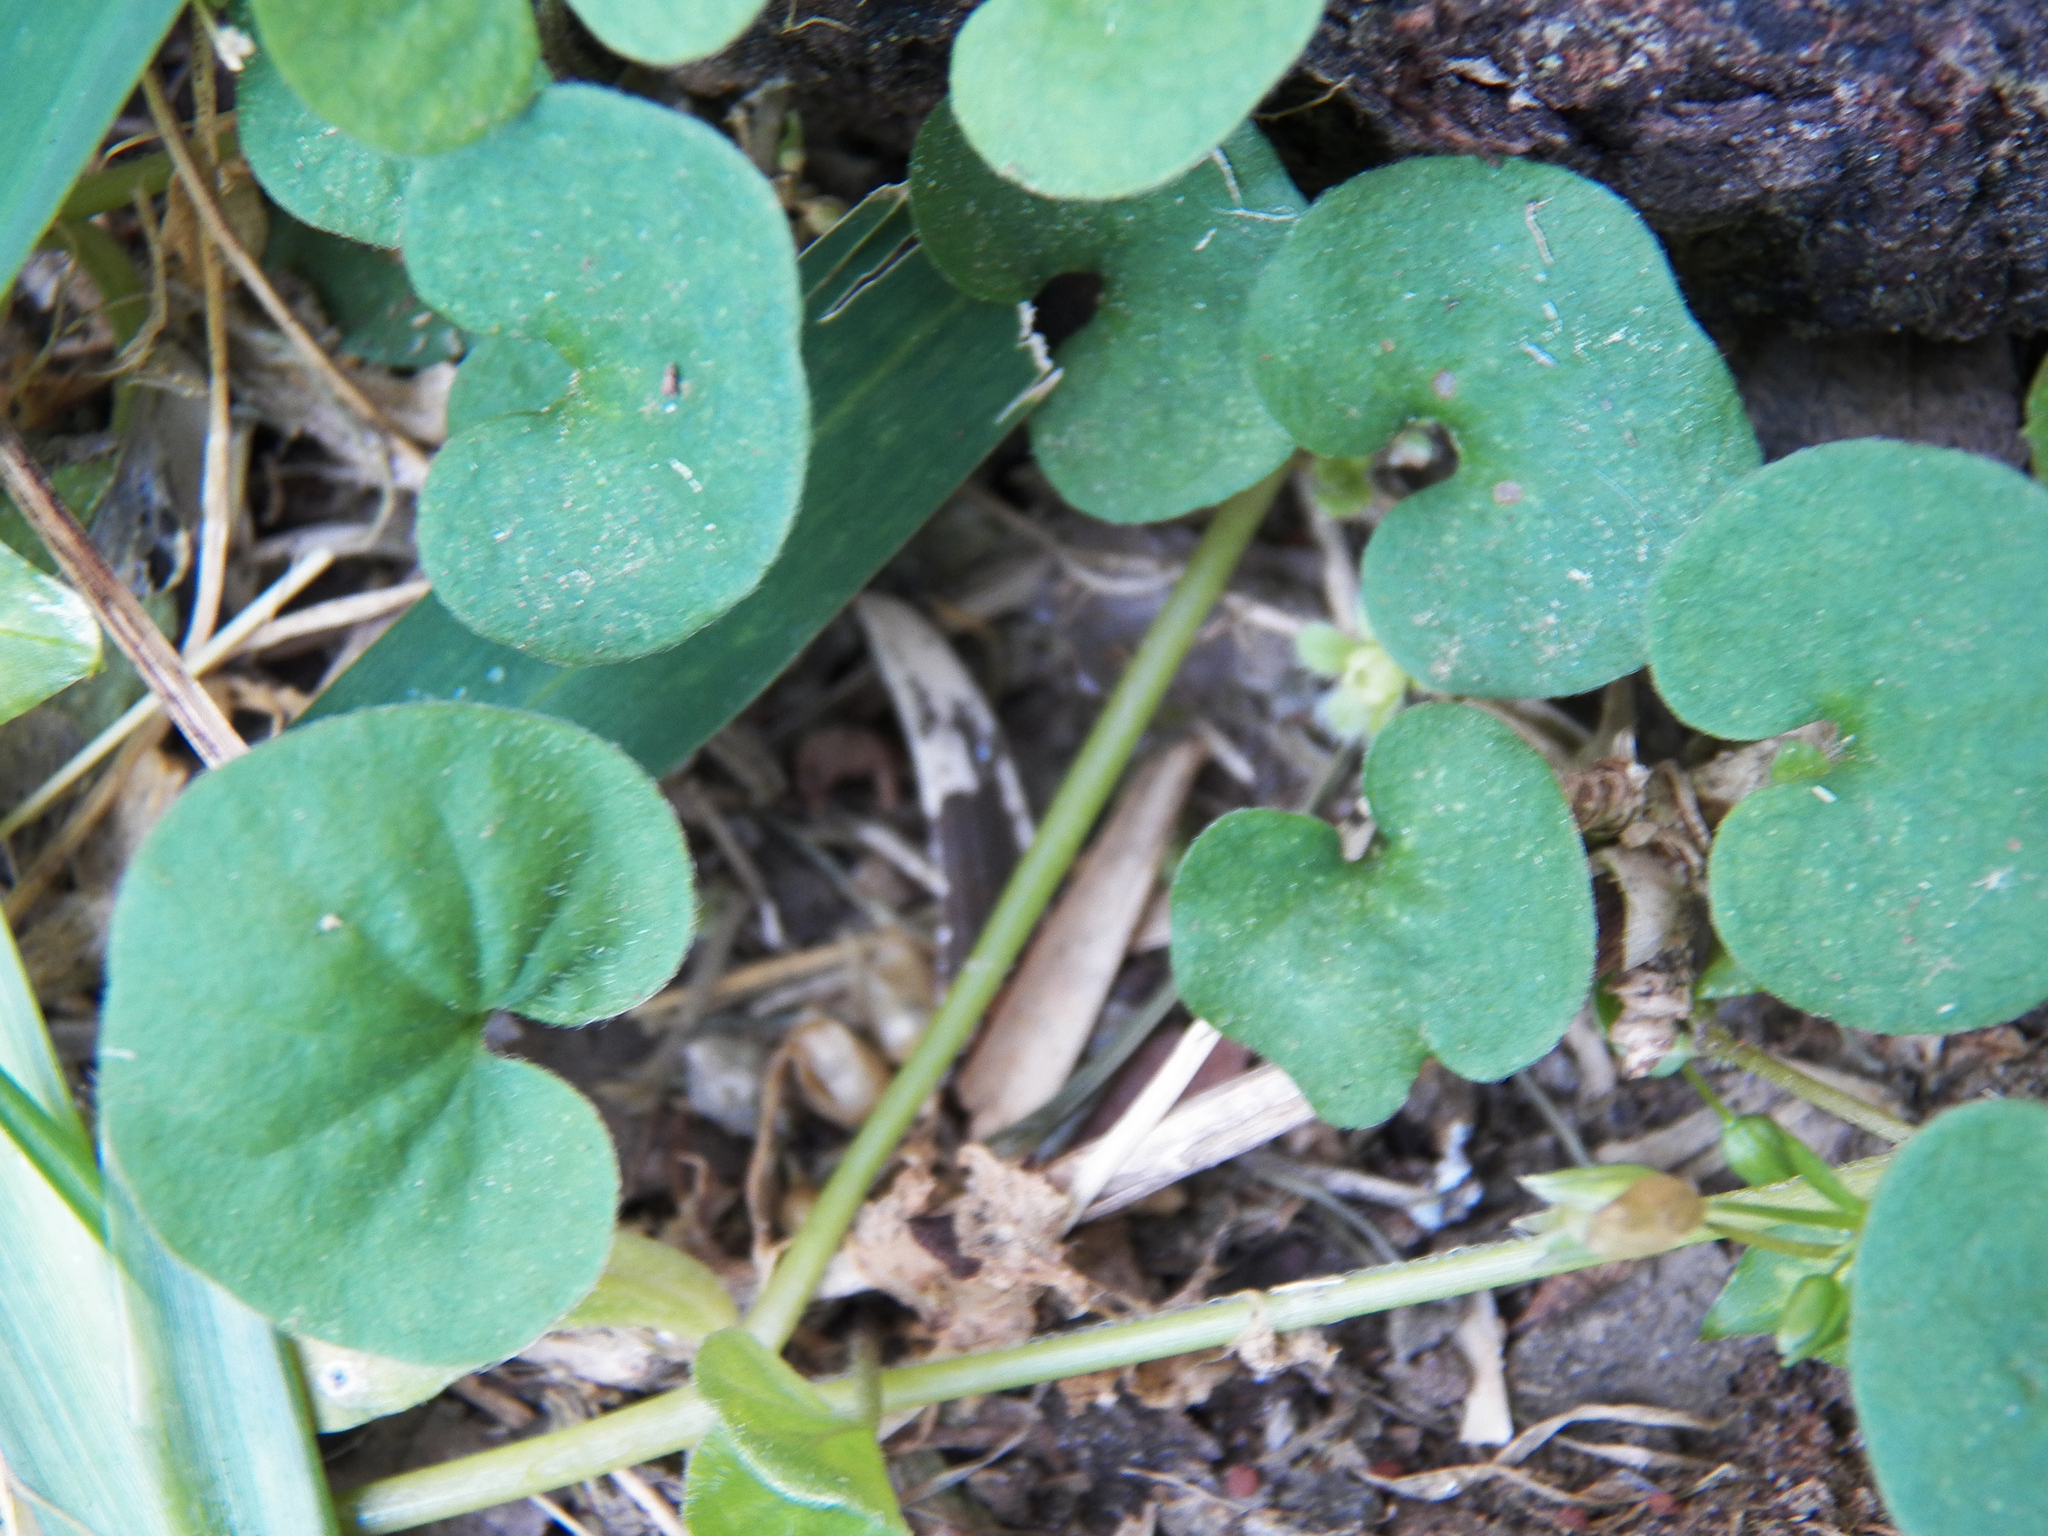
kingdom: Plantae
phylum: Tracheophyta
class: Magnoliopsida
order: Solanales
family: Convolvulaceae
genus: Dichondra
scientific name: Dichondra carolinensis
